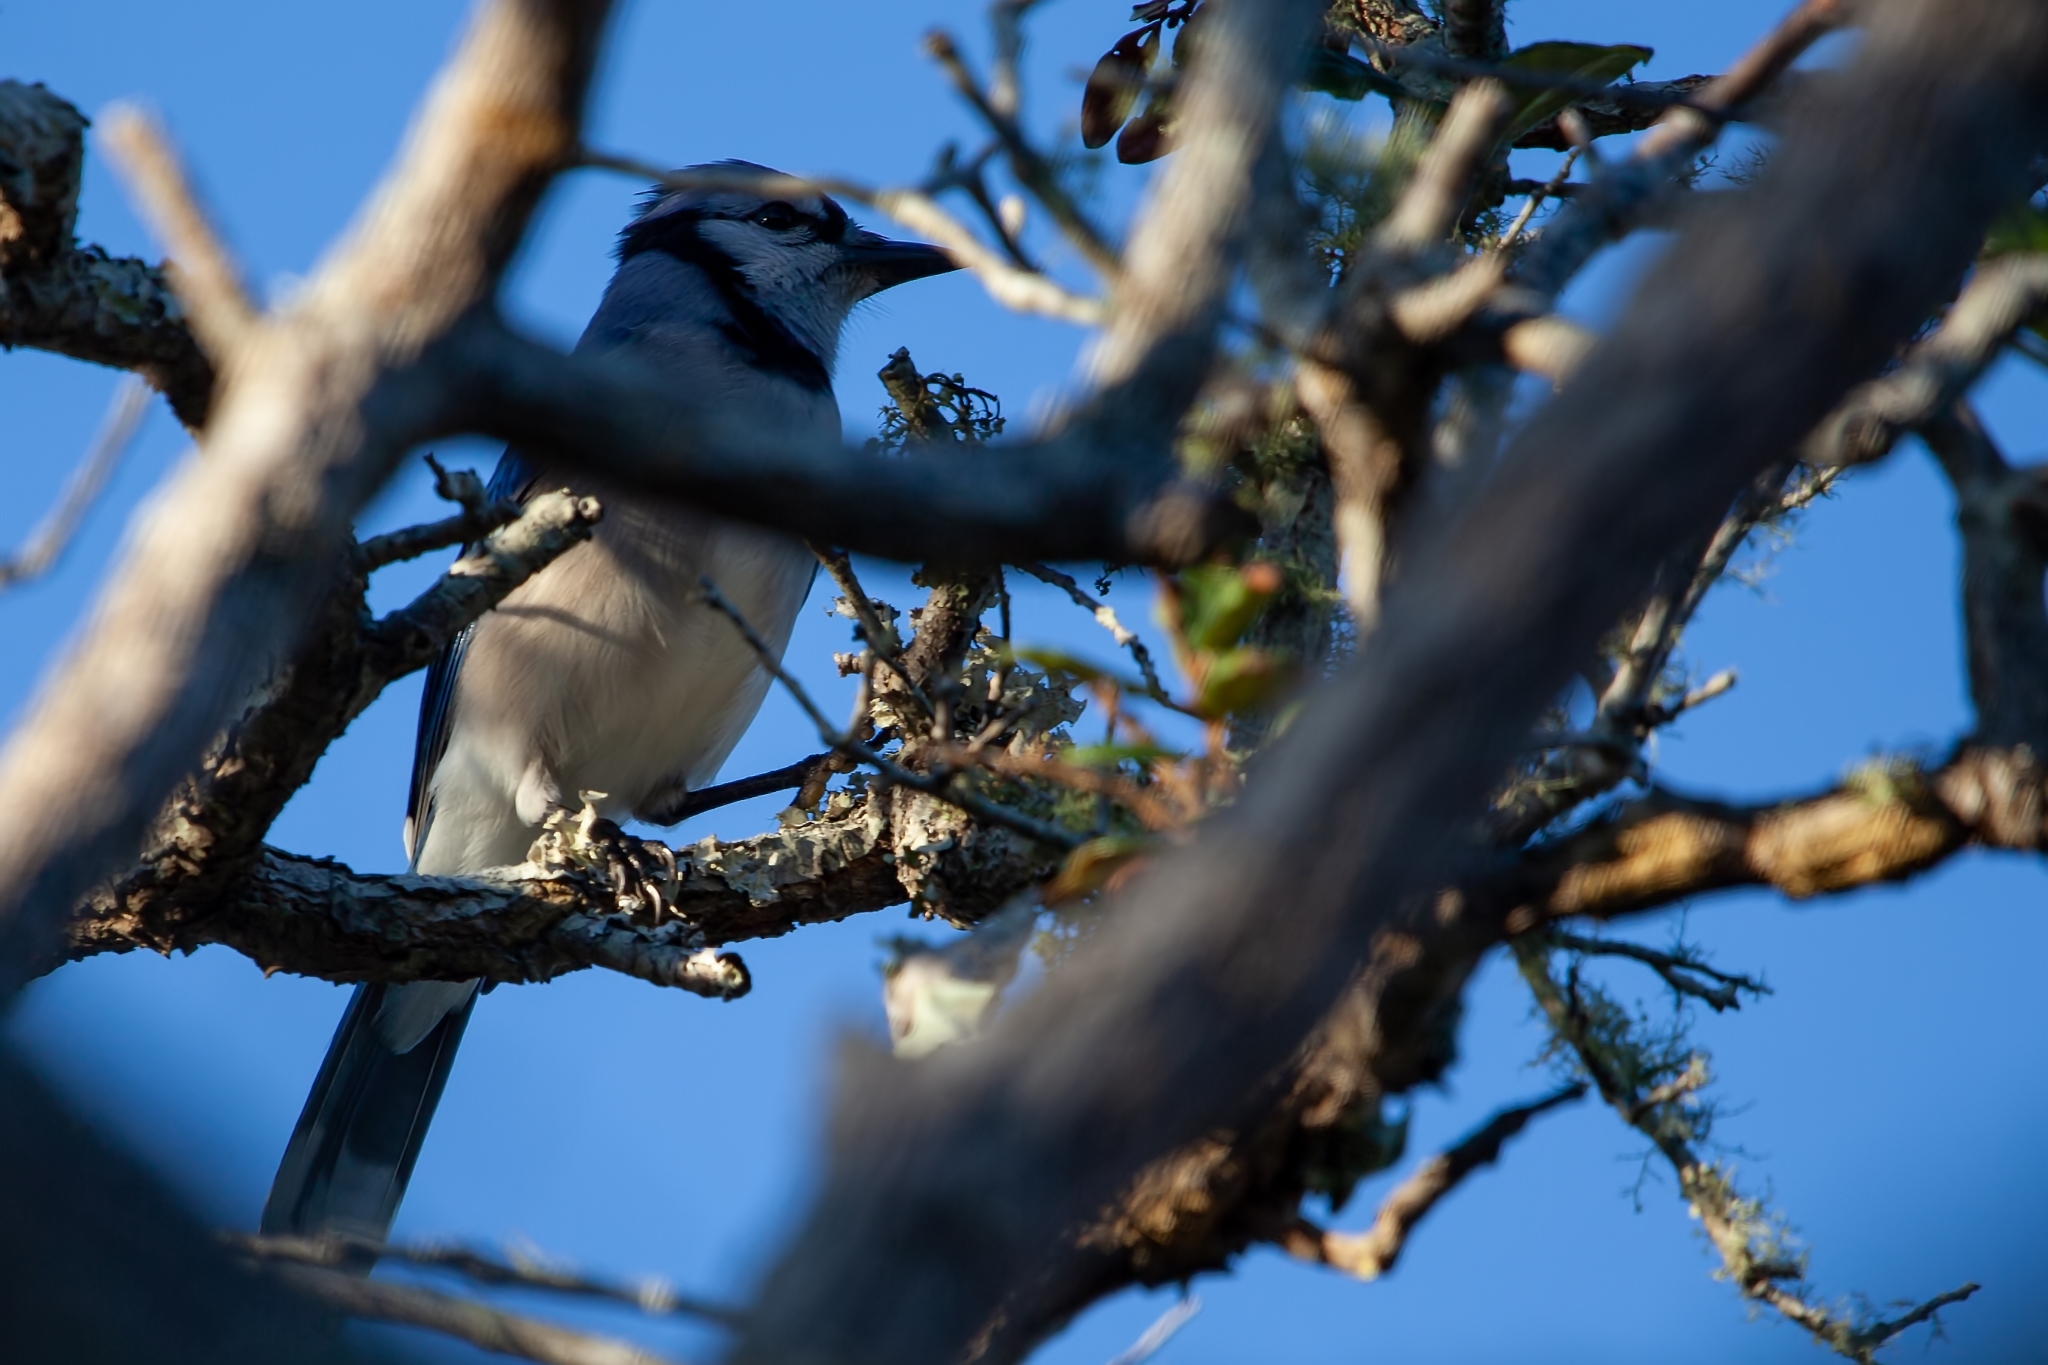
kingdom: Animalia
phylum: Chordata
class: Aves
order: Passeriformes
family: Corvidae
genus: Cyanocitta
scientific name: Cyanocitta cristata
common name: Blue jay
